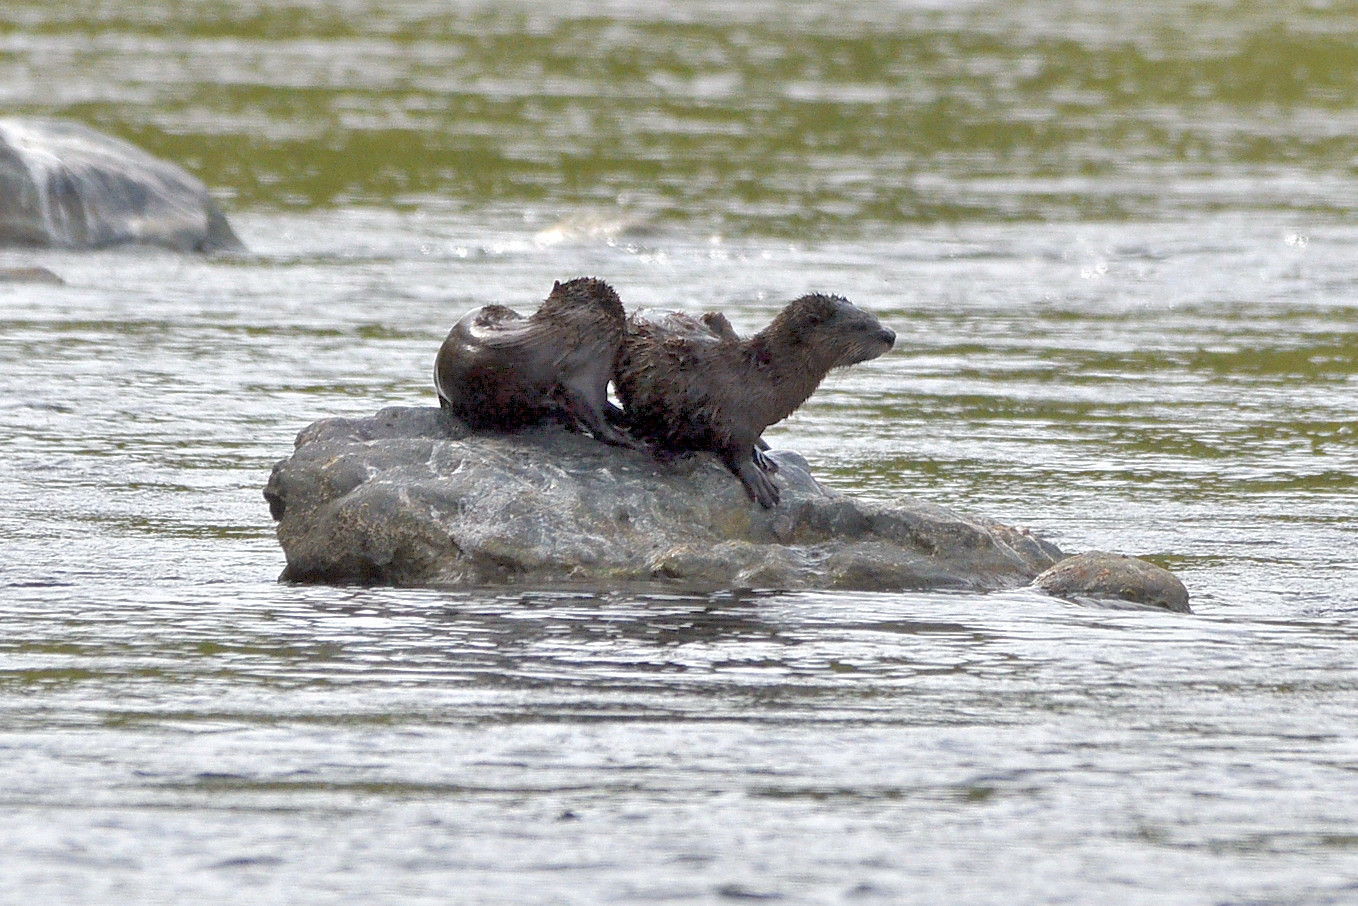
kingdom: Animalia
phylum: Chordata
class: Mammalia
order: Carnivora
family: Mustelidae
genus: Lontra
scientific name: Lontra canadensis
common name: North american river otter
